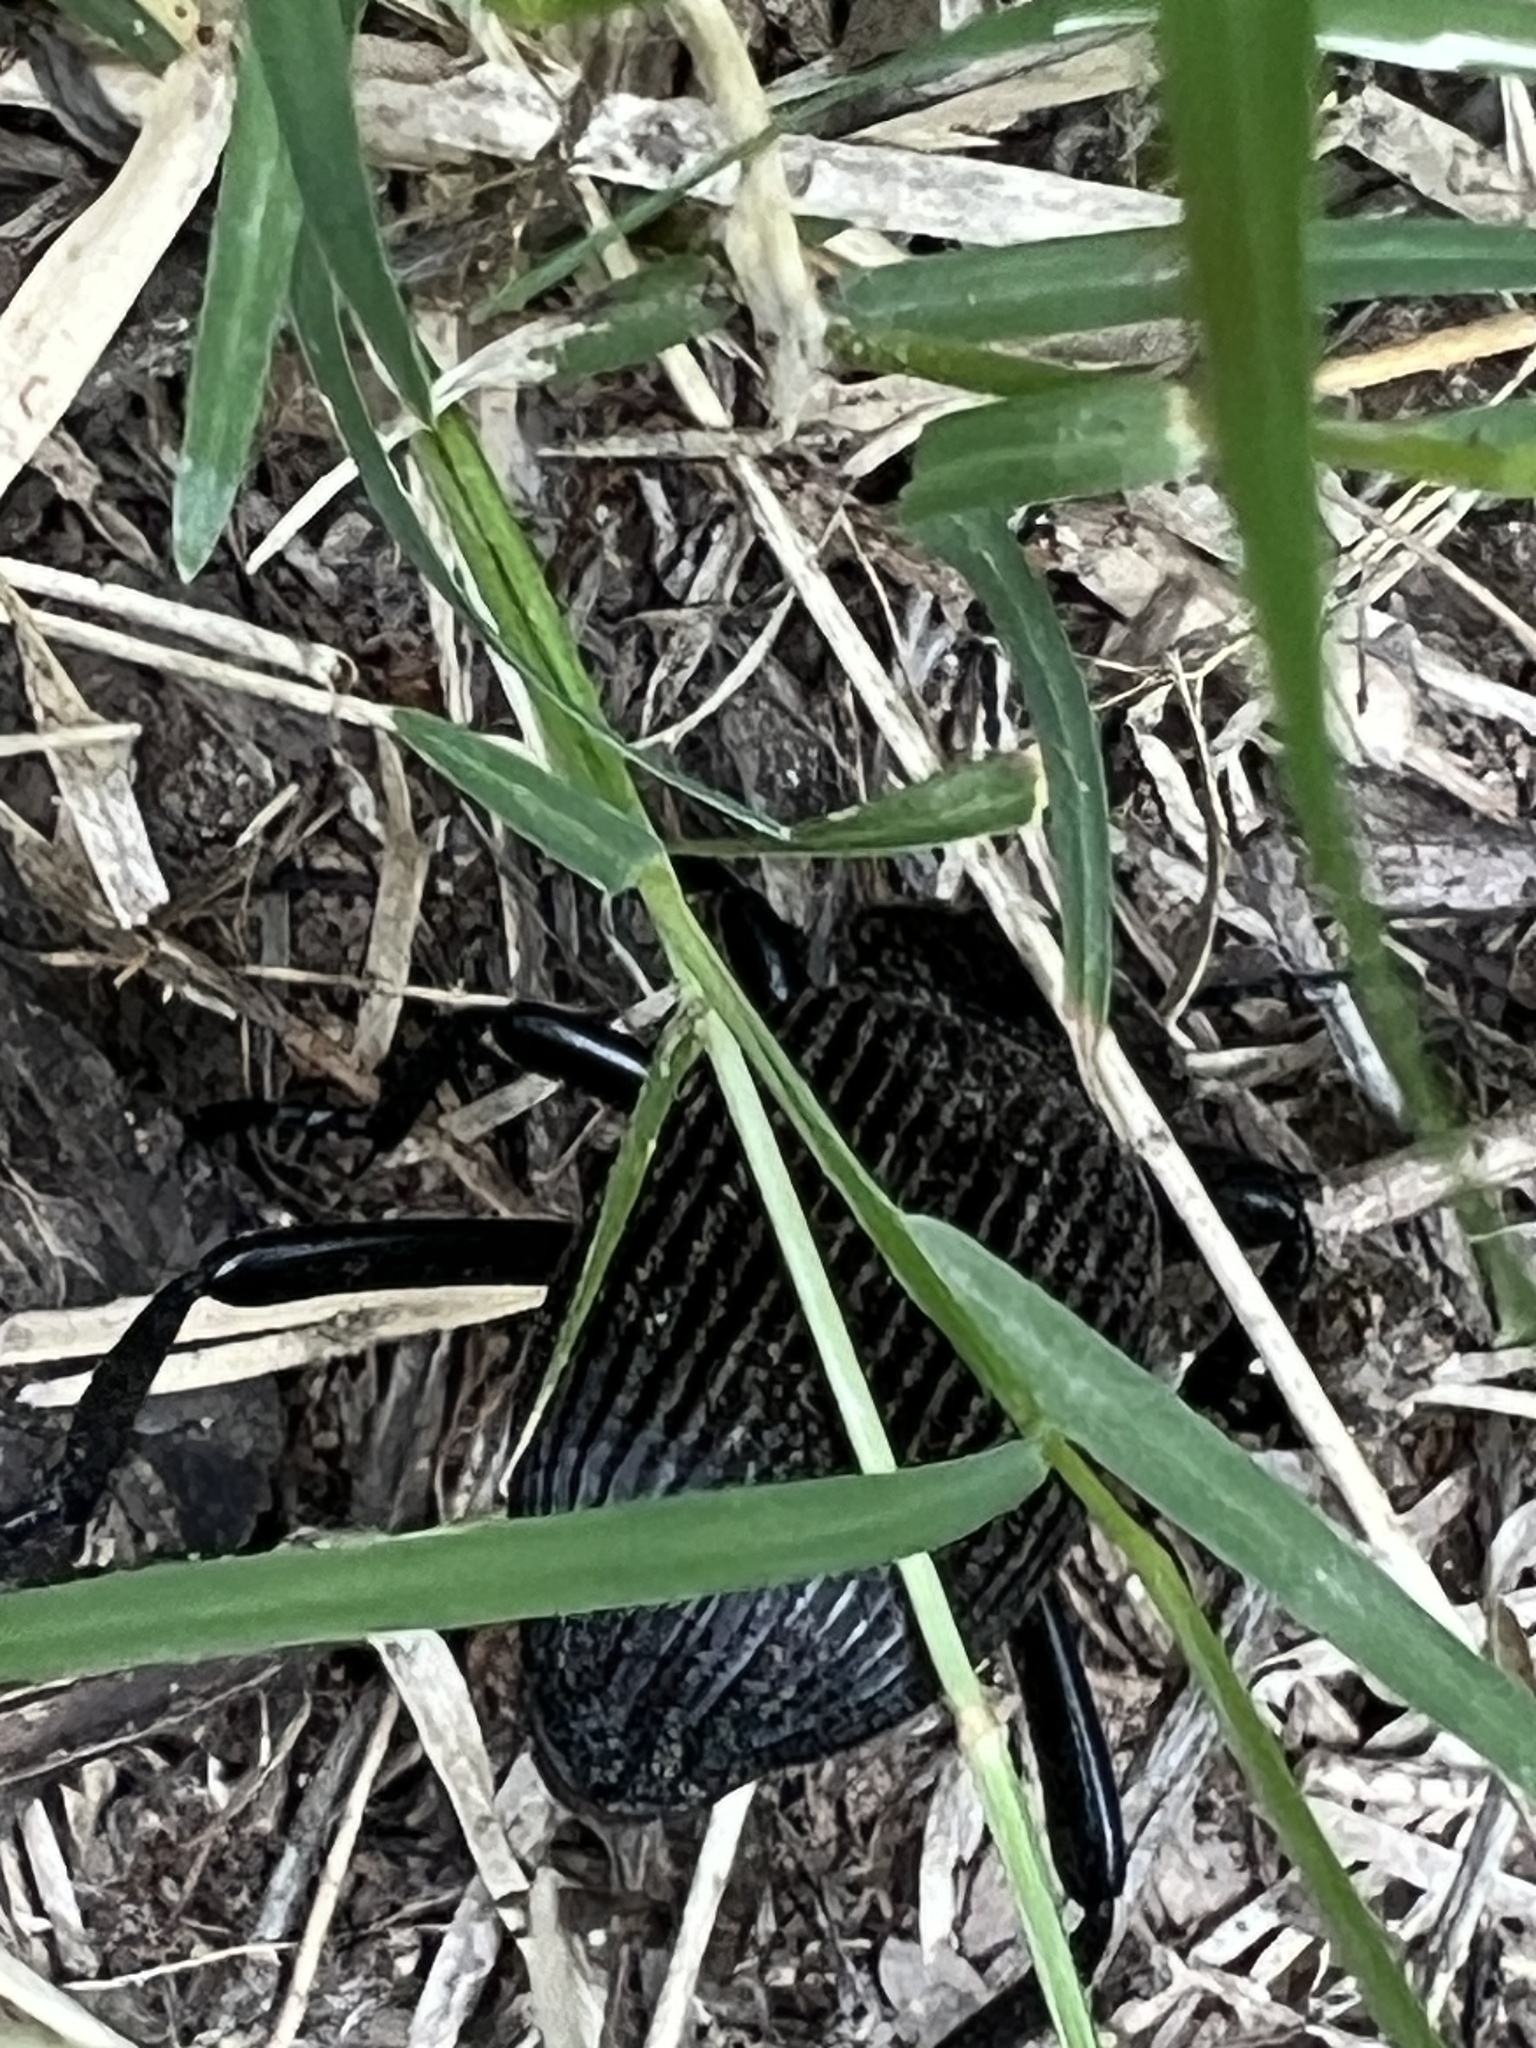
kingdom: Animalia
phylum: Arthropoda
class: Insecta
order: Coleoptera
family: Tenebrionidae
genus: Eleodes
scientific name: Eleodes obscura
